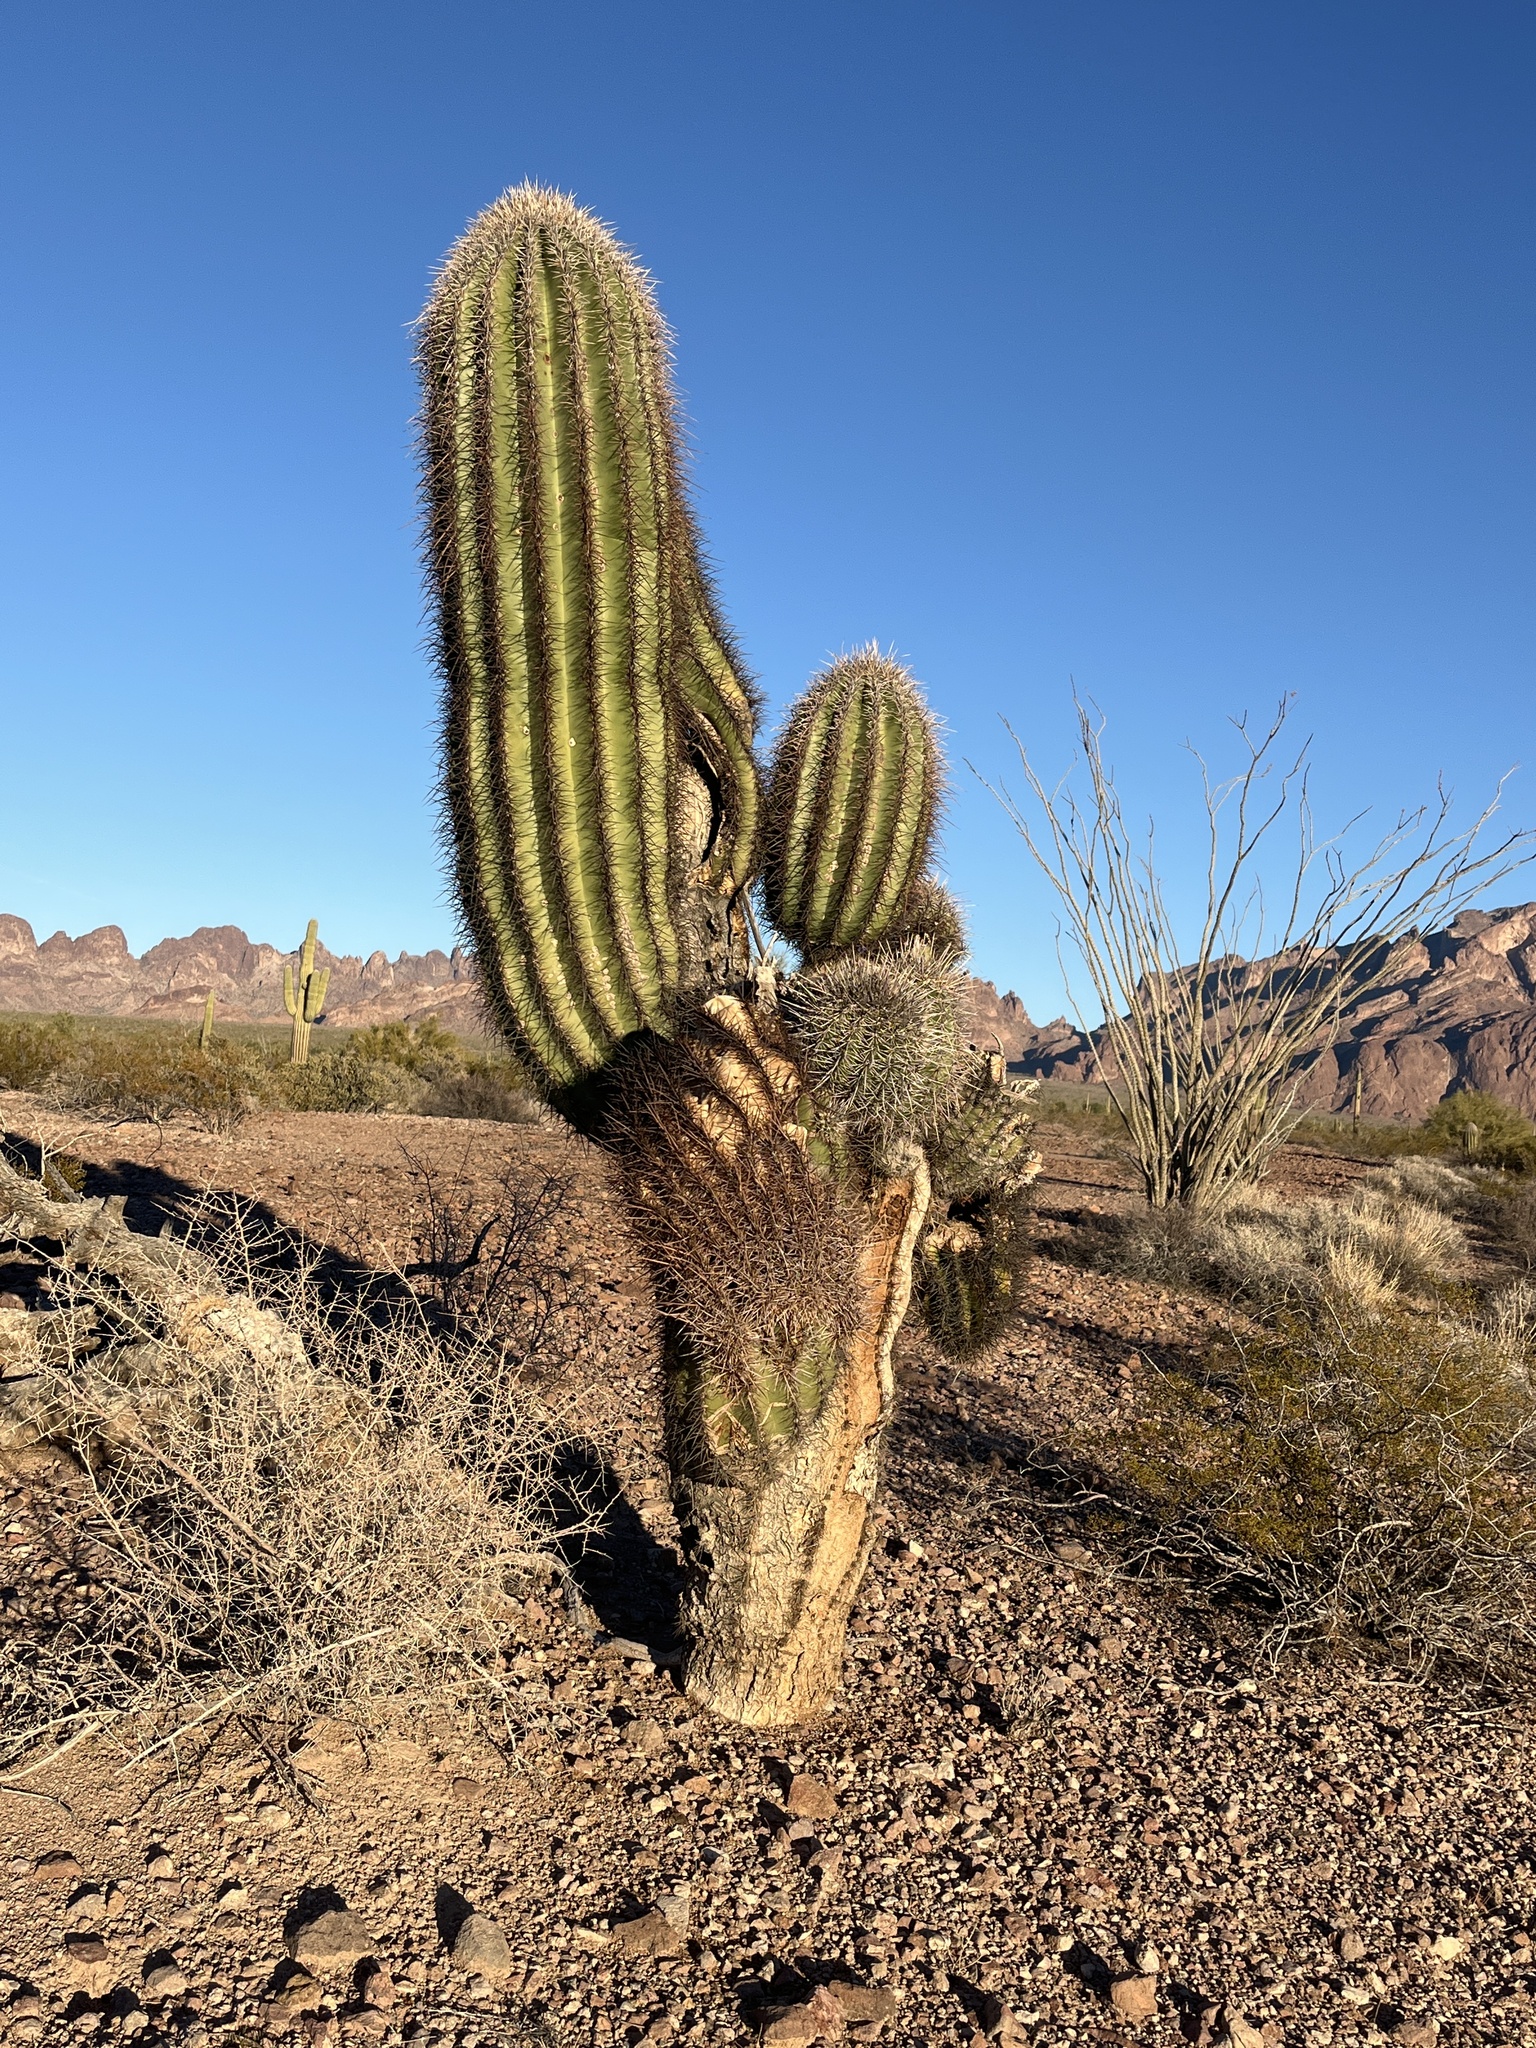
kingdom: Plantae
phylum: Tracheophyta
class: Magnoliopsida
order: Caryophyllales
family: Cactaceae
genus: Carnegiea
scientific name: Carnegiea gigantea
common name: Saguaro
